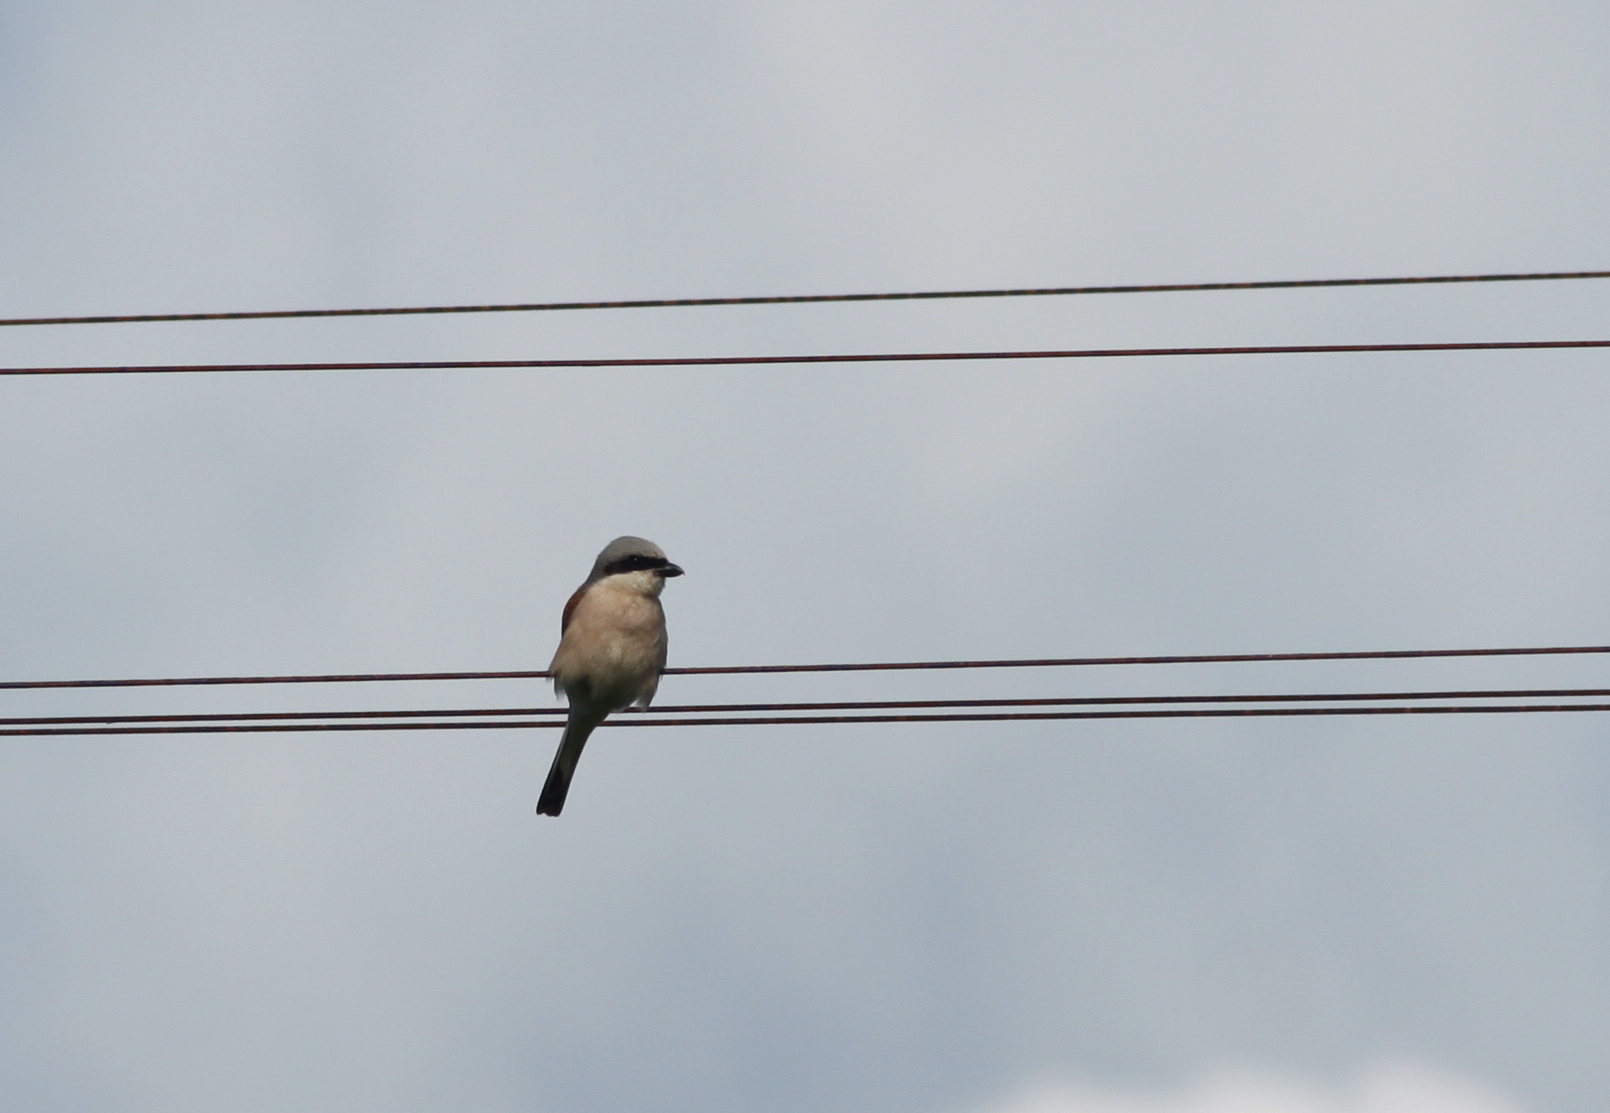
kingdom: Animalia
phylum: Chordata
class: Aves
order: Passeriformes
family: Laniidae
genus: Lanius
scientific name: Lanius collurio
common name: Red-backed shrike
